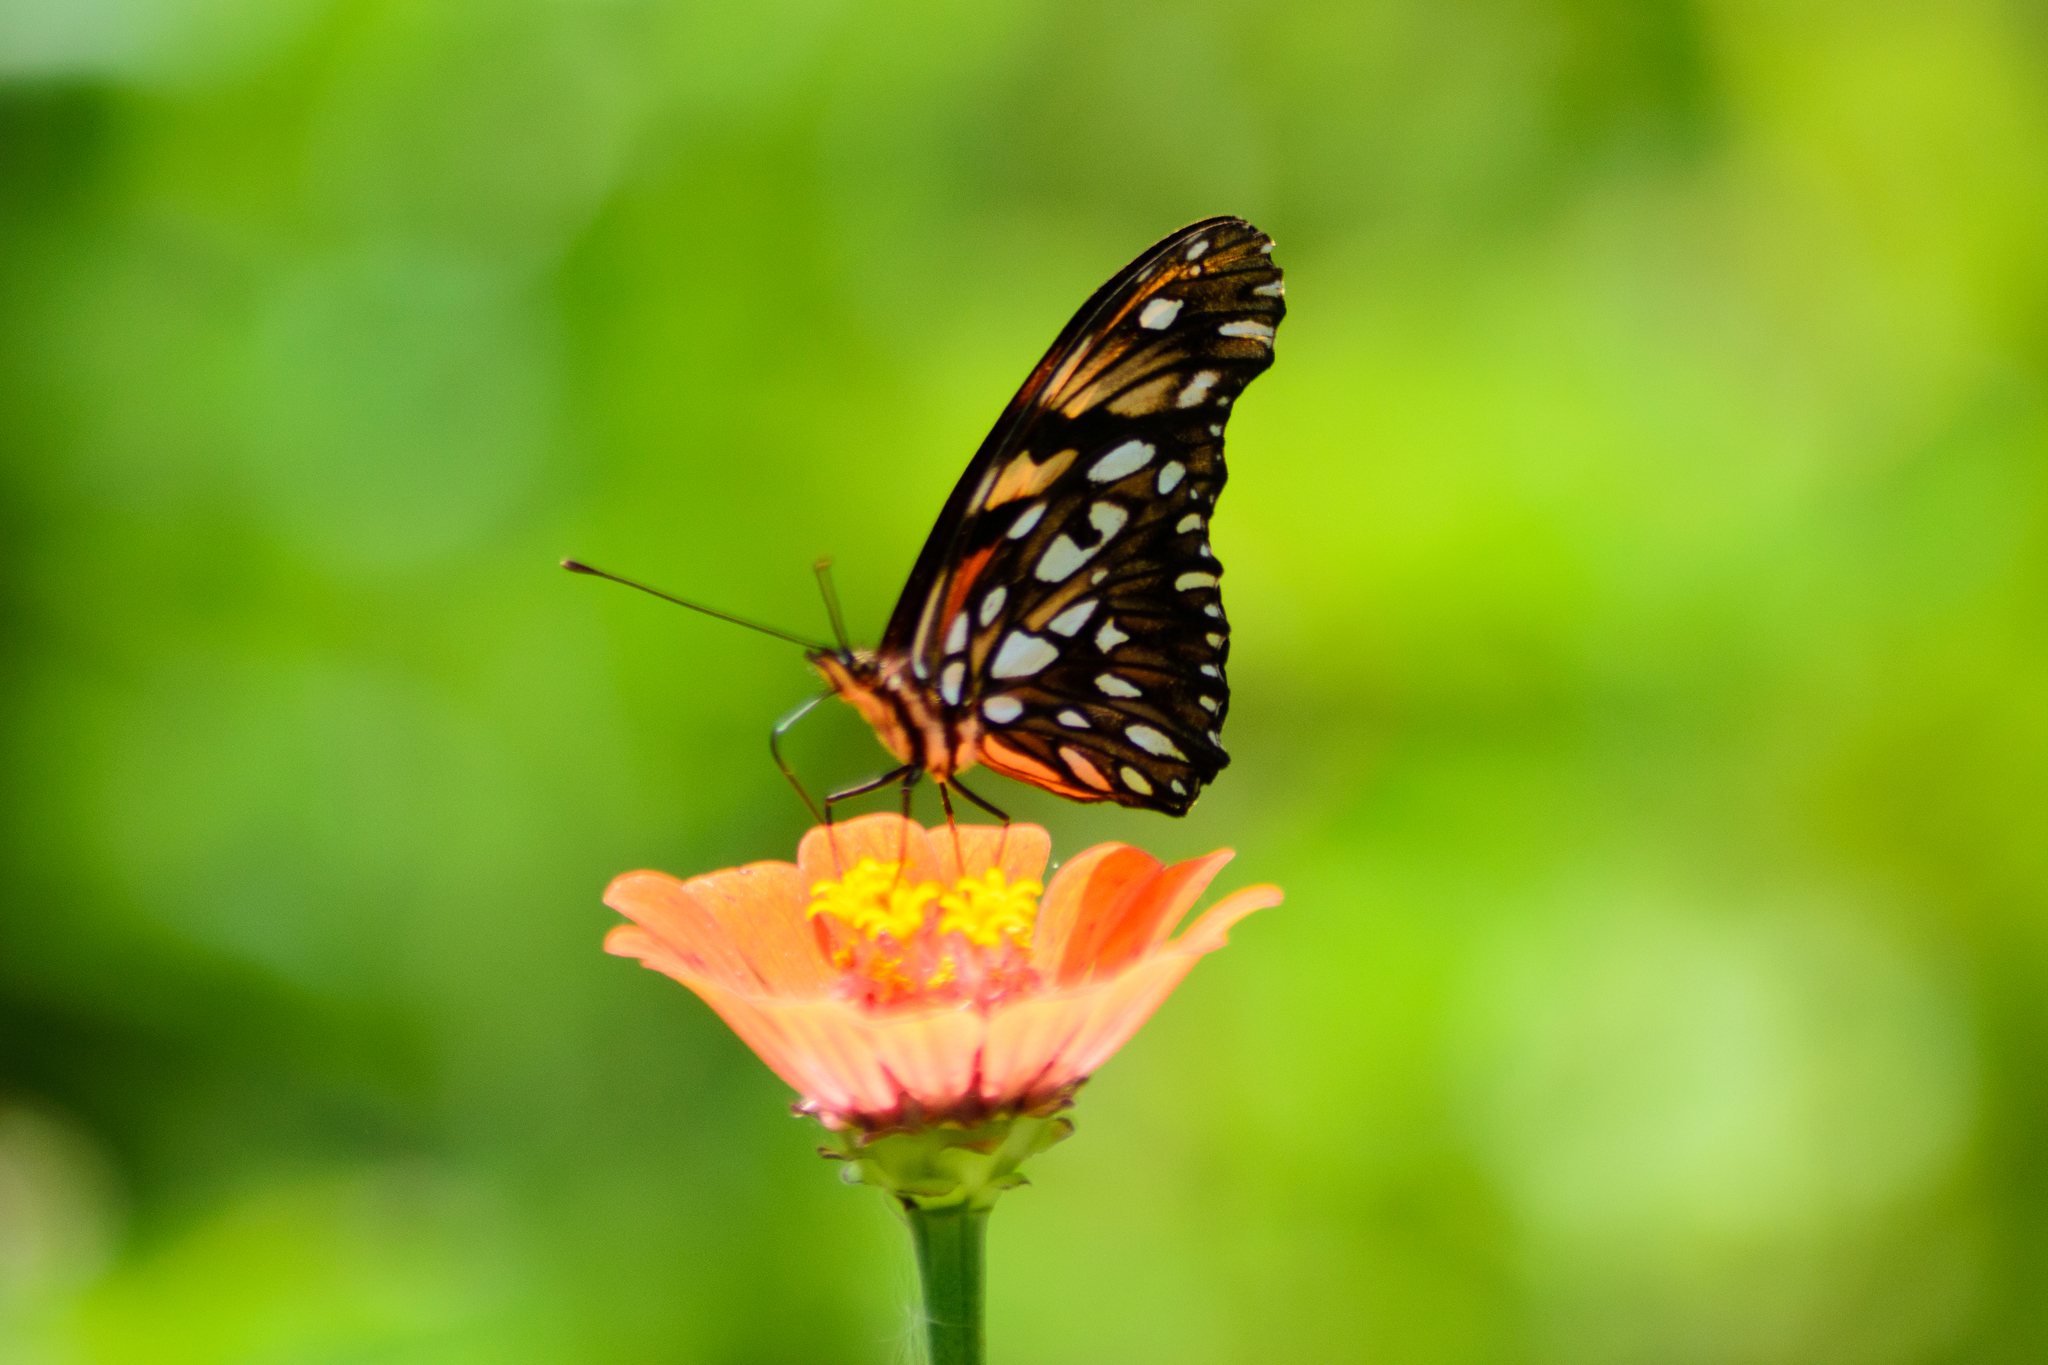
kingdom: Animalia
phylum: Arthropoda
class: Insecta
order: Lepidoptera
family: Nymphalidae
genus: Dione
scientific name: Dione juno
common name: Juno silverspot
